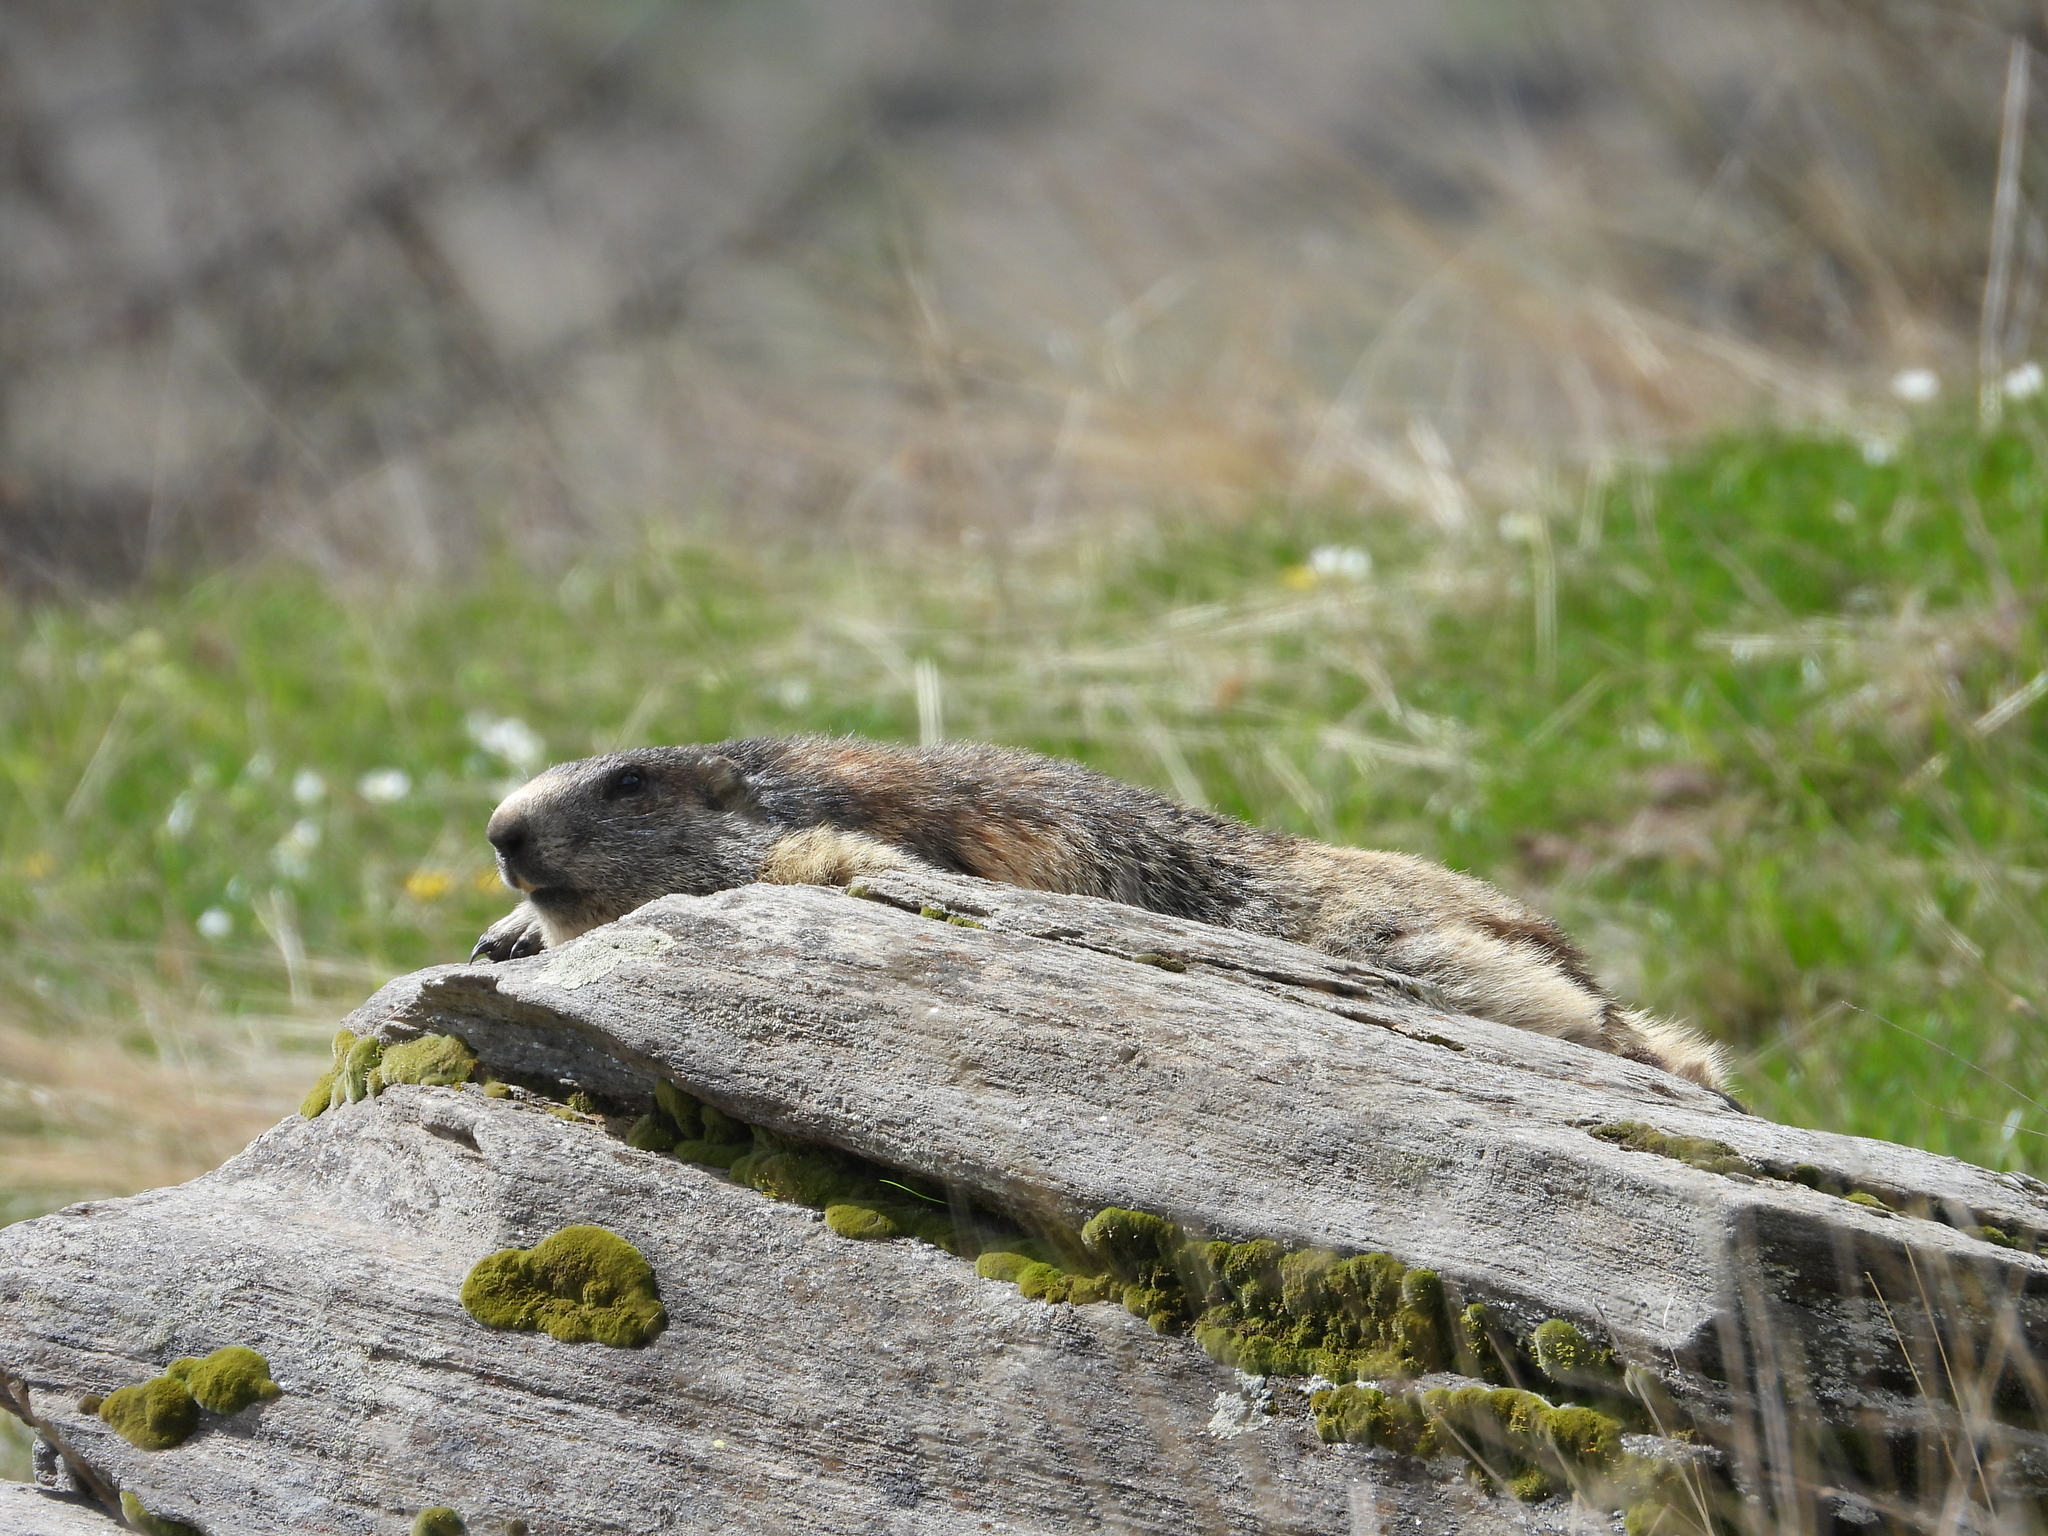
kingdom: Animalia
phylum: Chordata
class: Mammalia
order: Rodentia
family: Sciuridae
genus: Marmota
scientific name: Marmota marmota
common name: Alpine marmot
